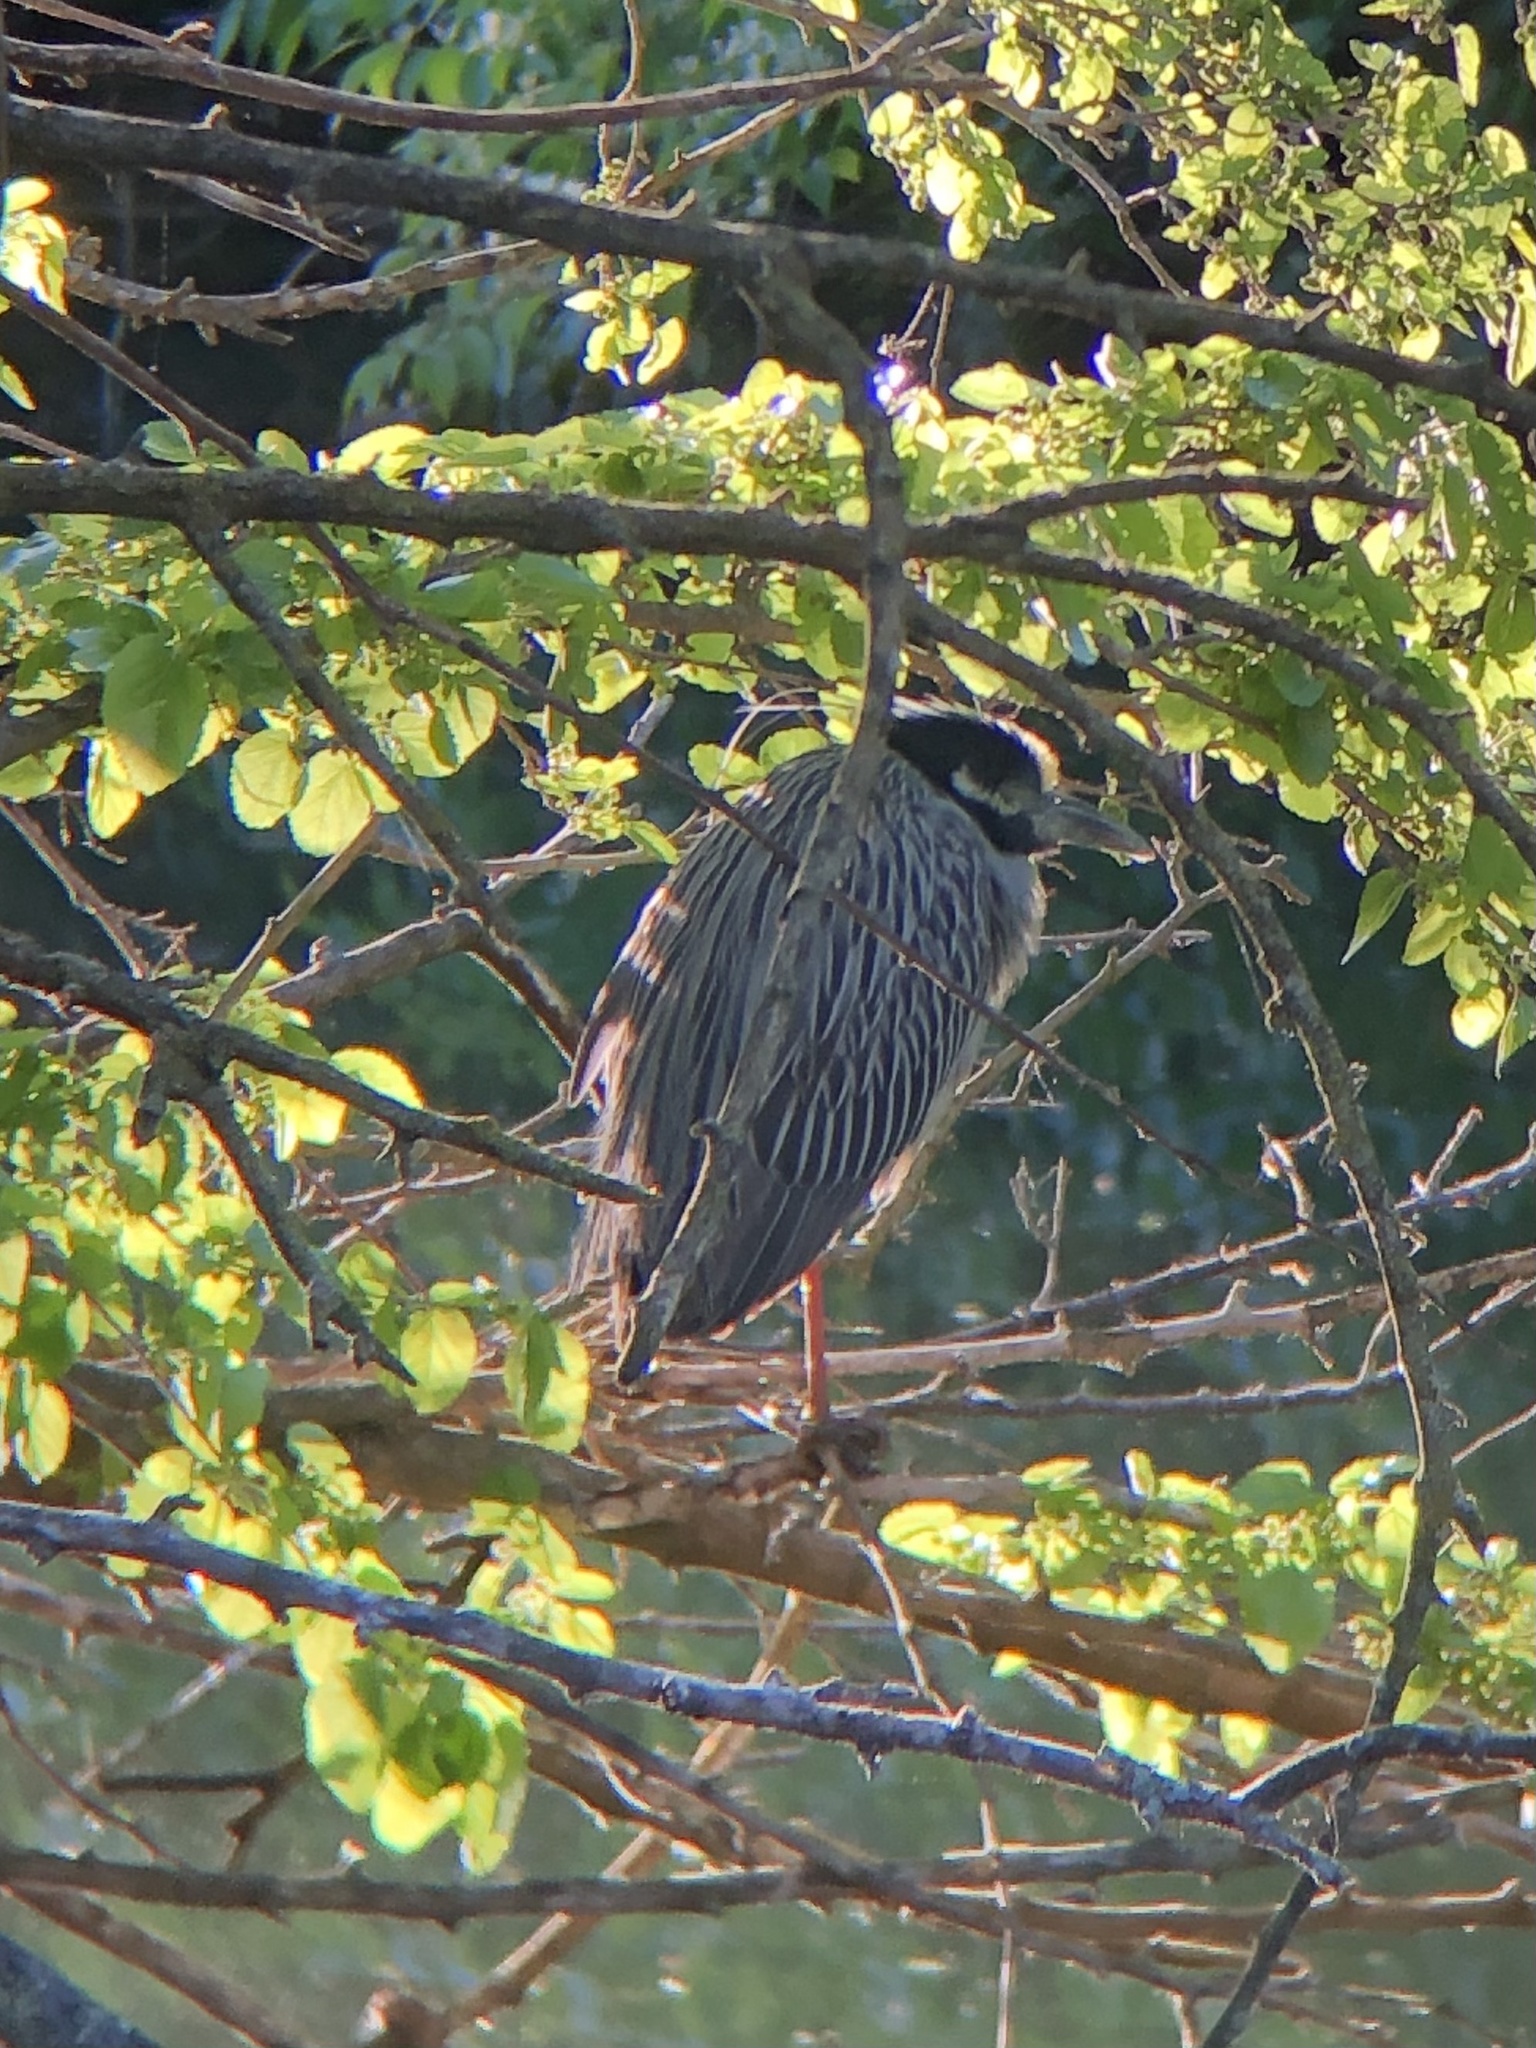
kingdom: Animalia
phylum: Chordata
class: Aves
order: Pelecaniformes
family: Ardeidae
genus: Nyctanassa
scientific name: Nyctanassa violacea
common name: Yellow-crowned night heron
